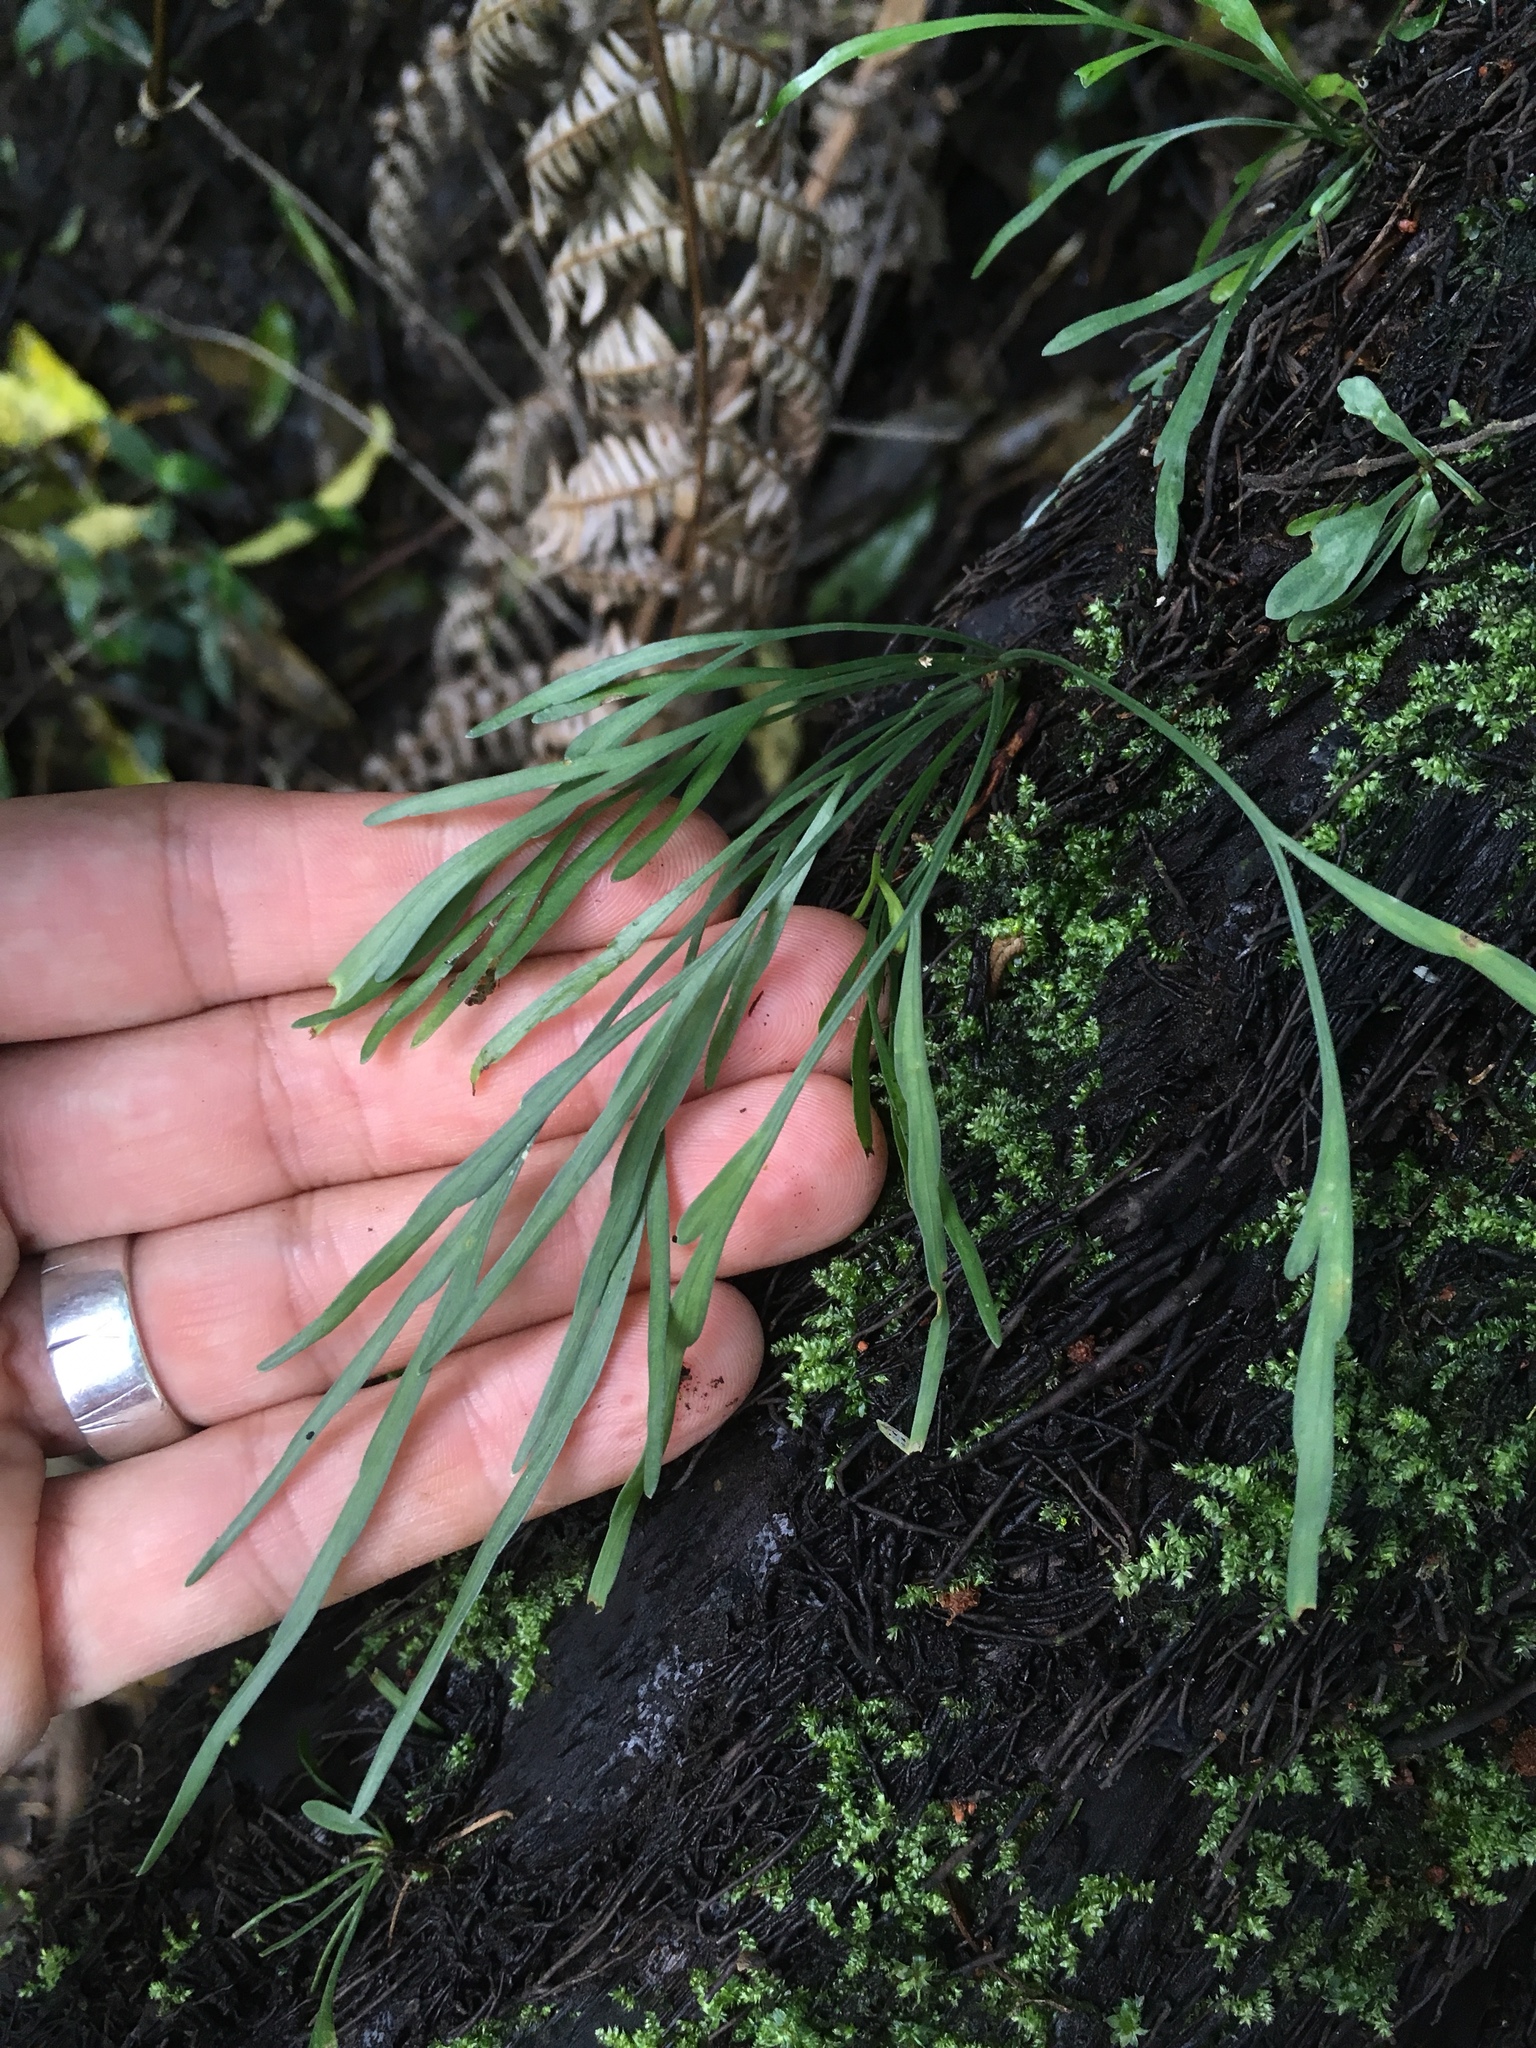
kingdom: Plantae
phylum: Tracheophyta
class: Polypodiopsida
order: Polypodiales
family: Aspleniaceae
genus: Asplenium
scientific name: Asplenium flaccidum
